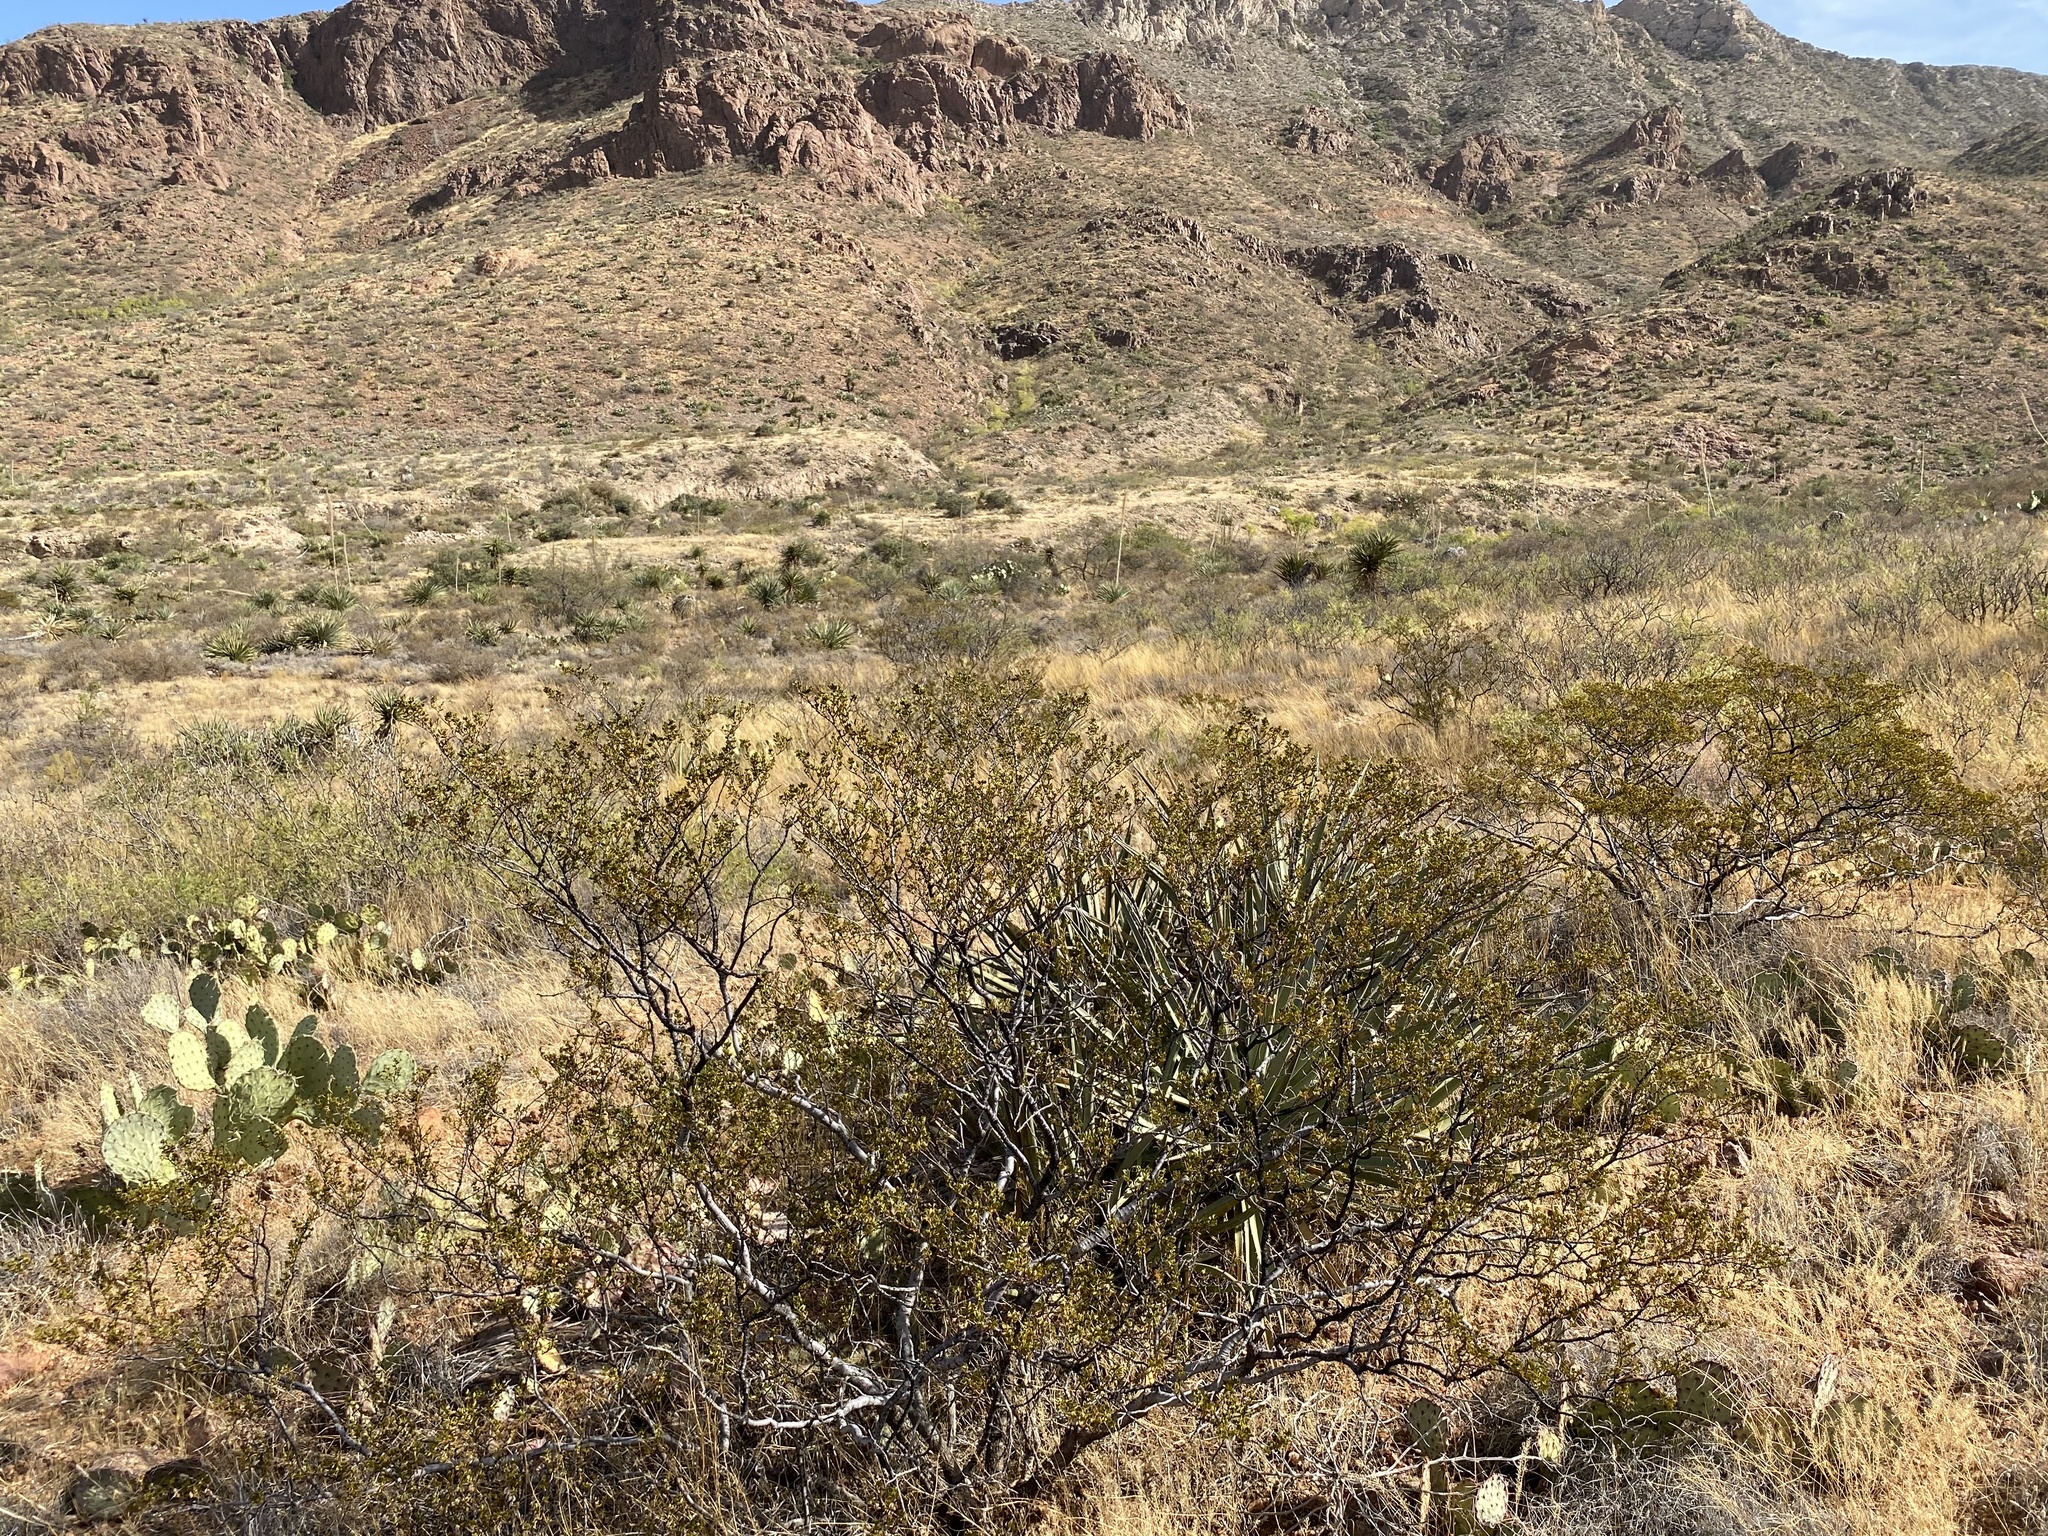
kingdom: Plantae
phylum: Tracheophyta
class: Magnoliopsida
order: Zygophyllales
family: Zygophyllaceae
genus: Larrea
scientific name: Larrea tridentata
